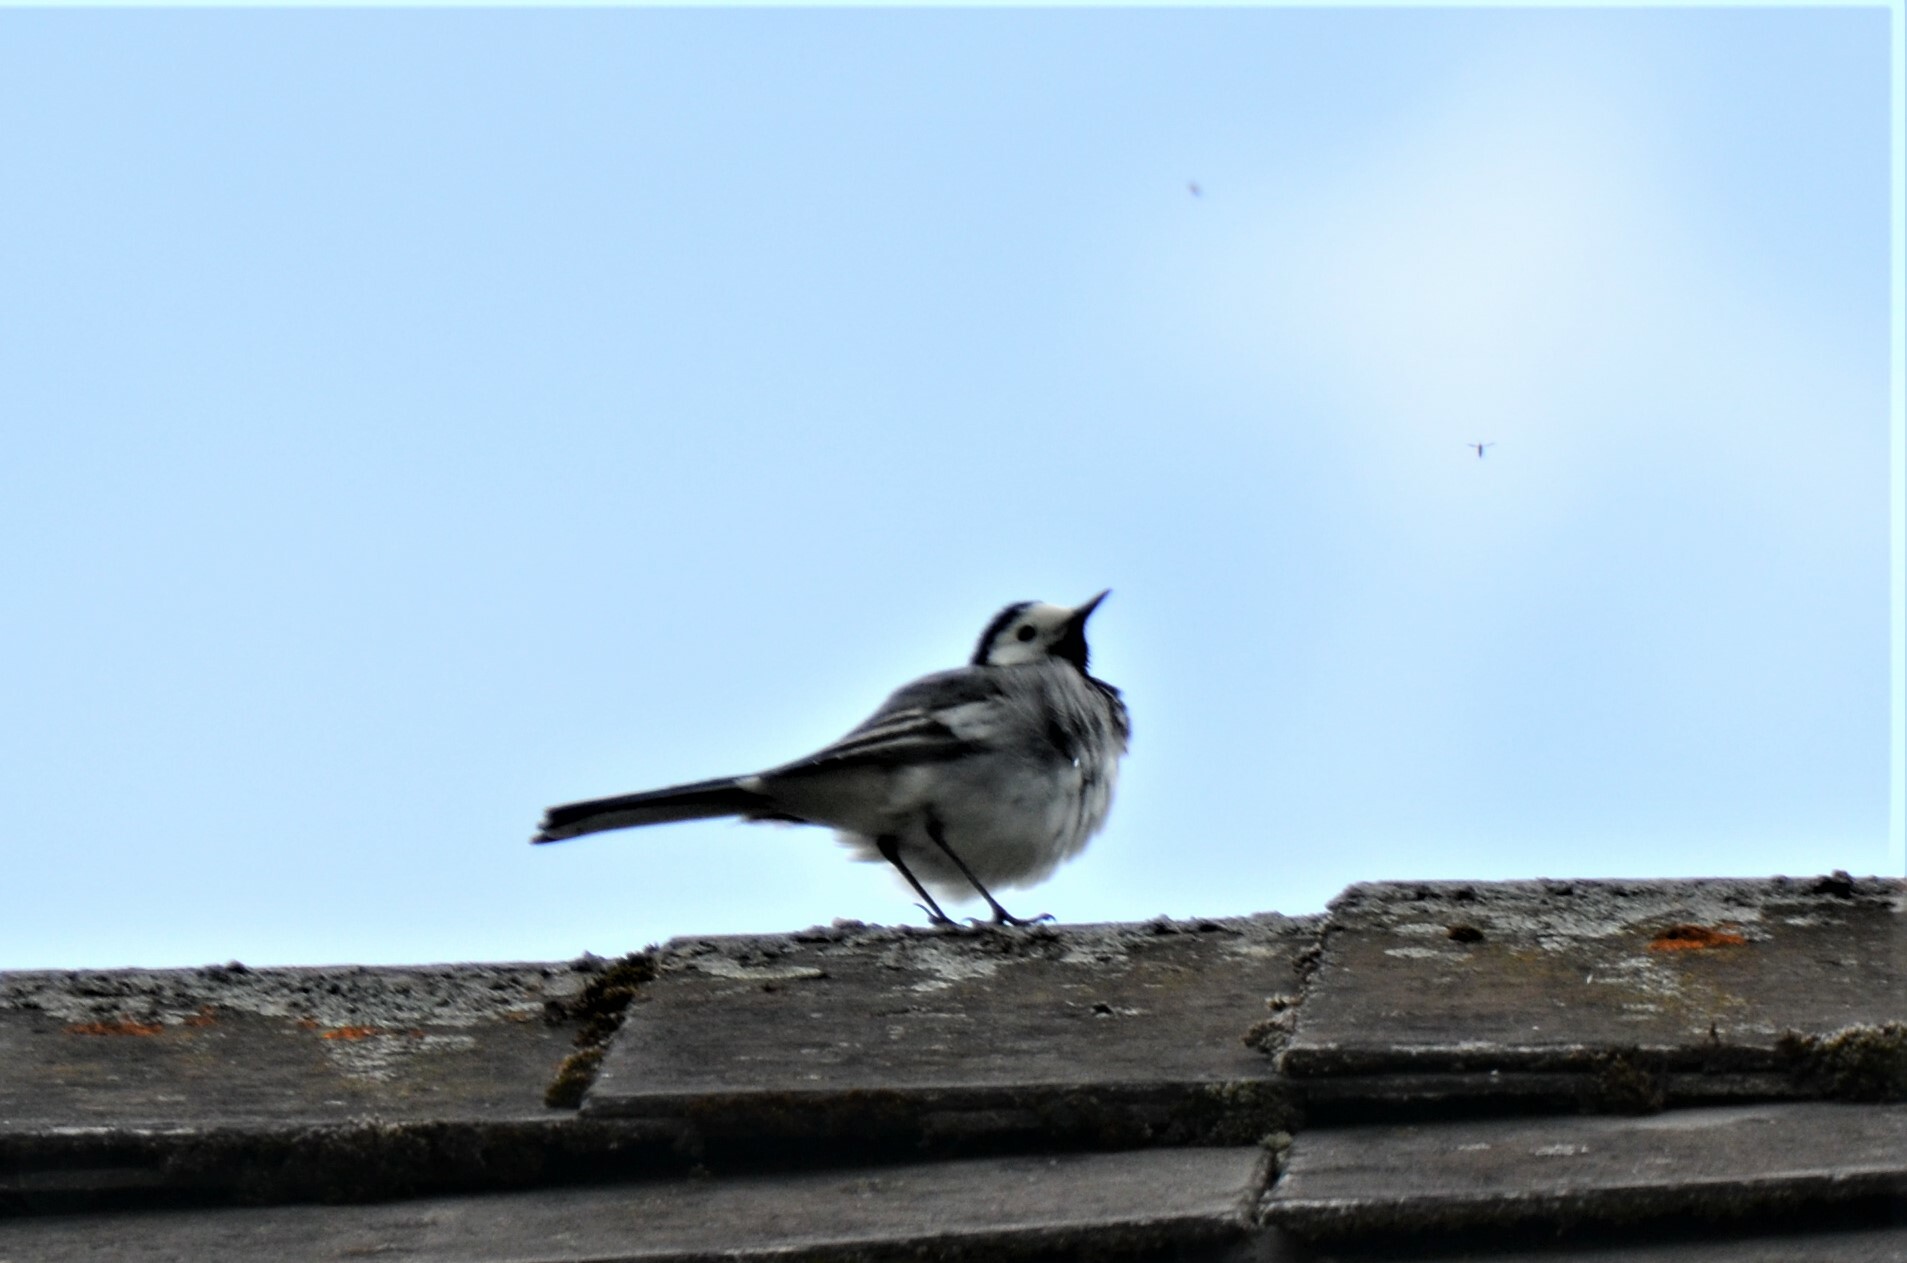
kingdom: Animalia
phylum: Chordata
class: Aves
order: Passeriformes
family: Motacillidae
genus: Motacilla
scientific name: Motacilla alba
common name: White wagtail
